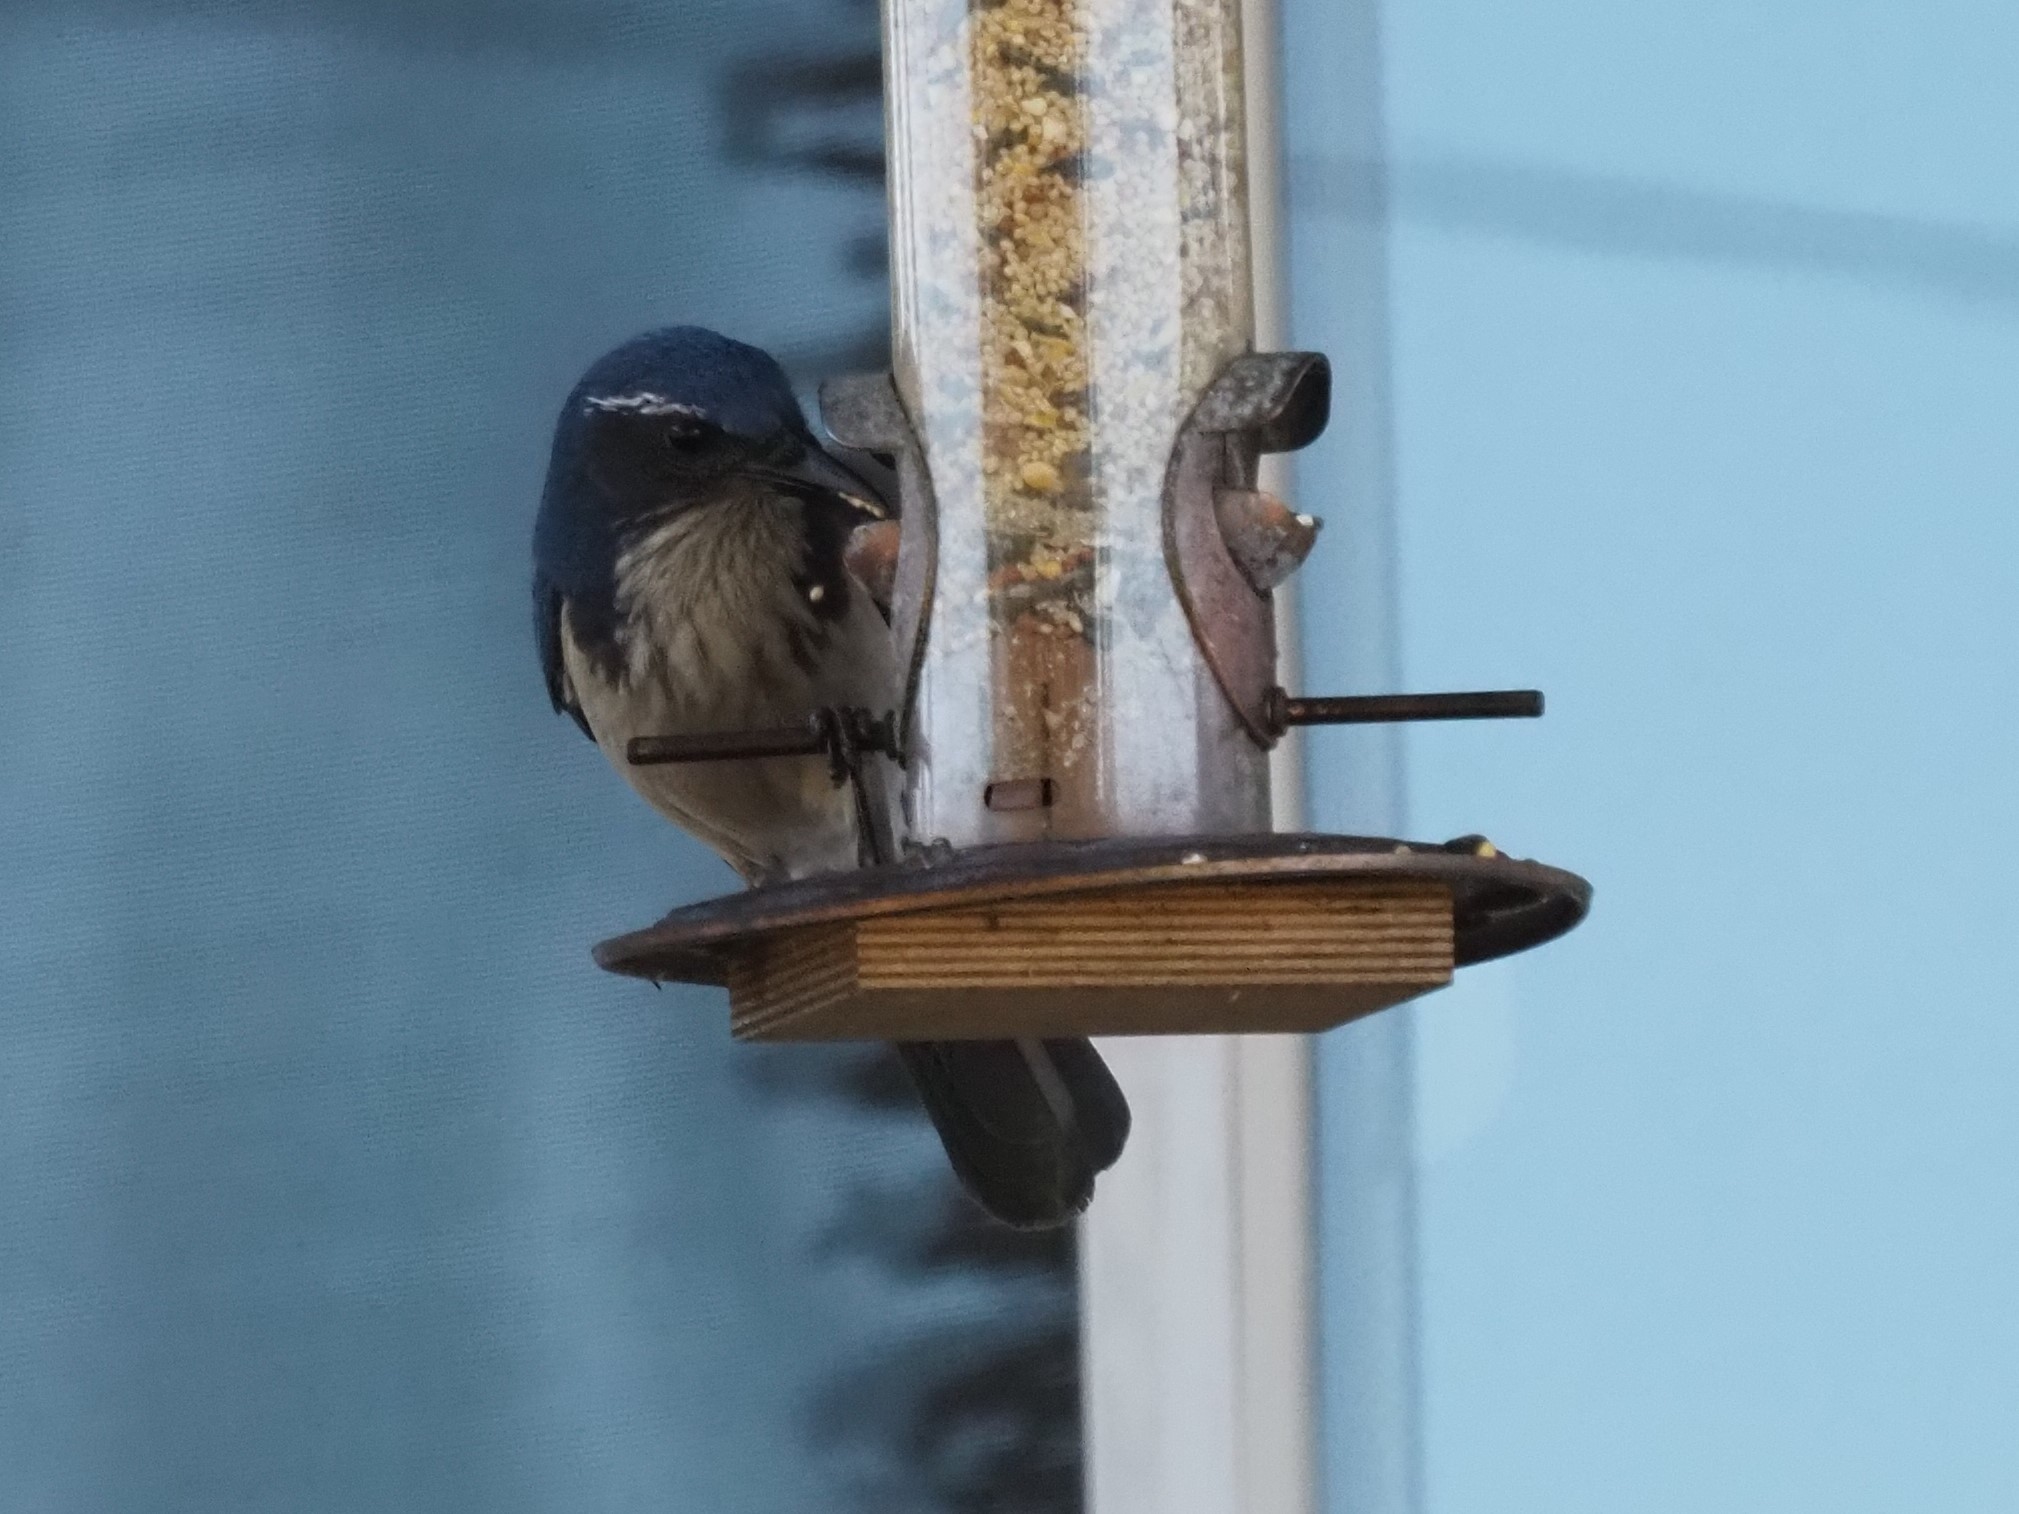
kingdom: Animalia
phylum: Chordata
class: Aves
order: Passeriformes
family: Corvidae
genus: Aphelocoma
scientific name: Aphelocoma californica
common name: California scrub-jay
